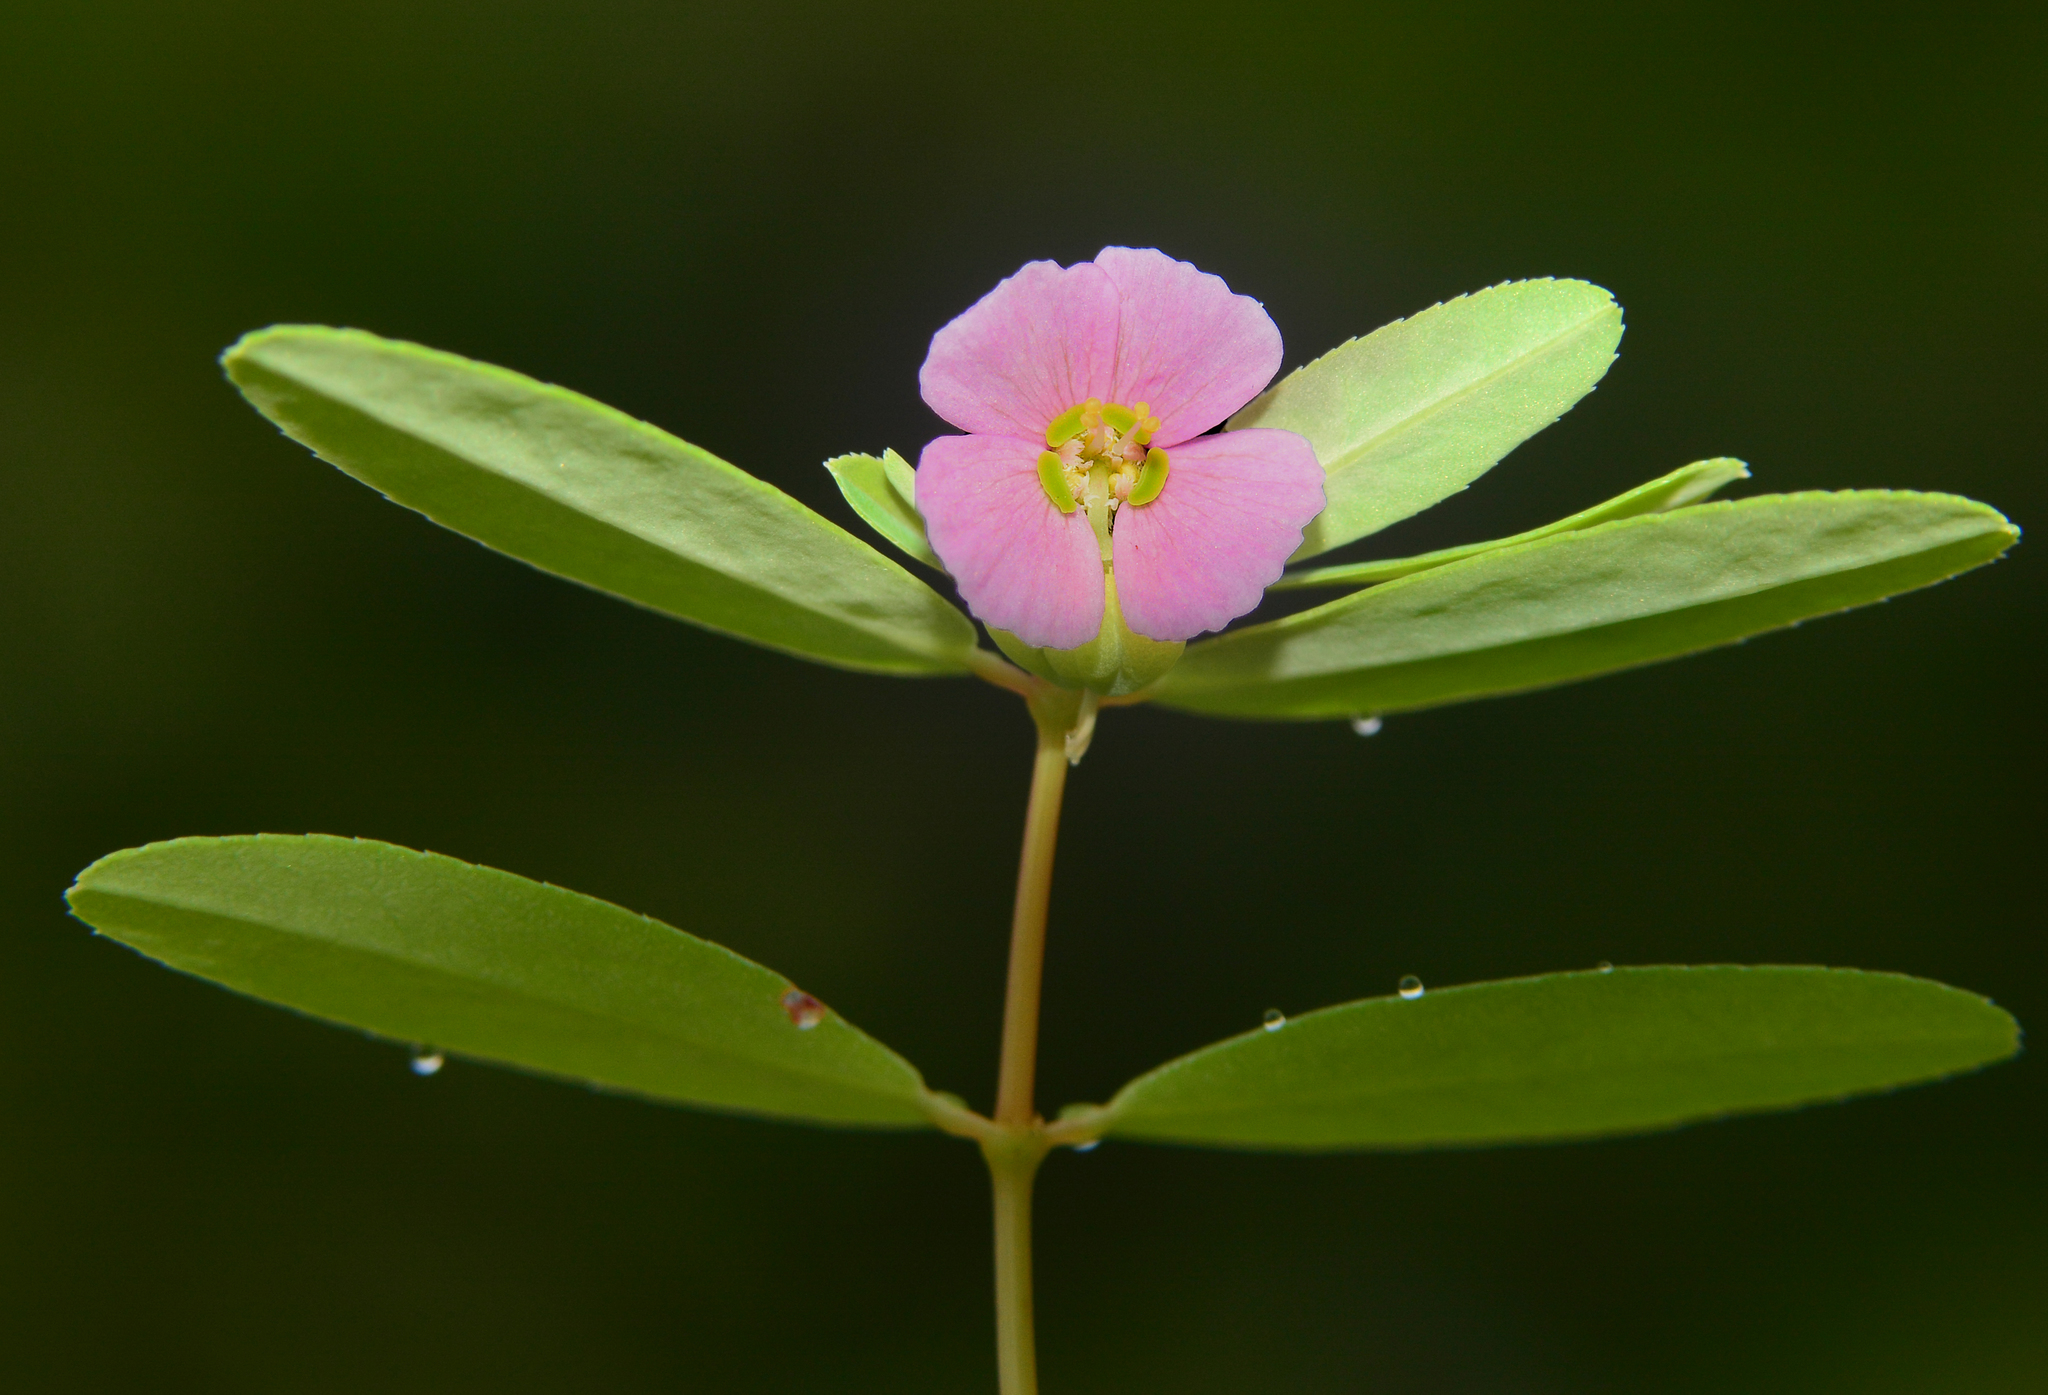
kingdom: Plantae
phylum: Tracheophyta
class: Magnoliopsida
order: Malpighiales
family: Euphorbiaceae
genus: Euphorbia
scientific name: Euphorbia concanensis
